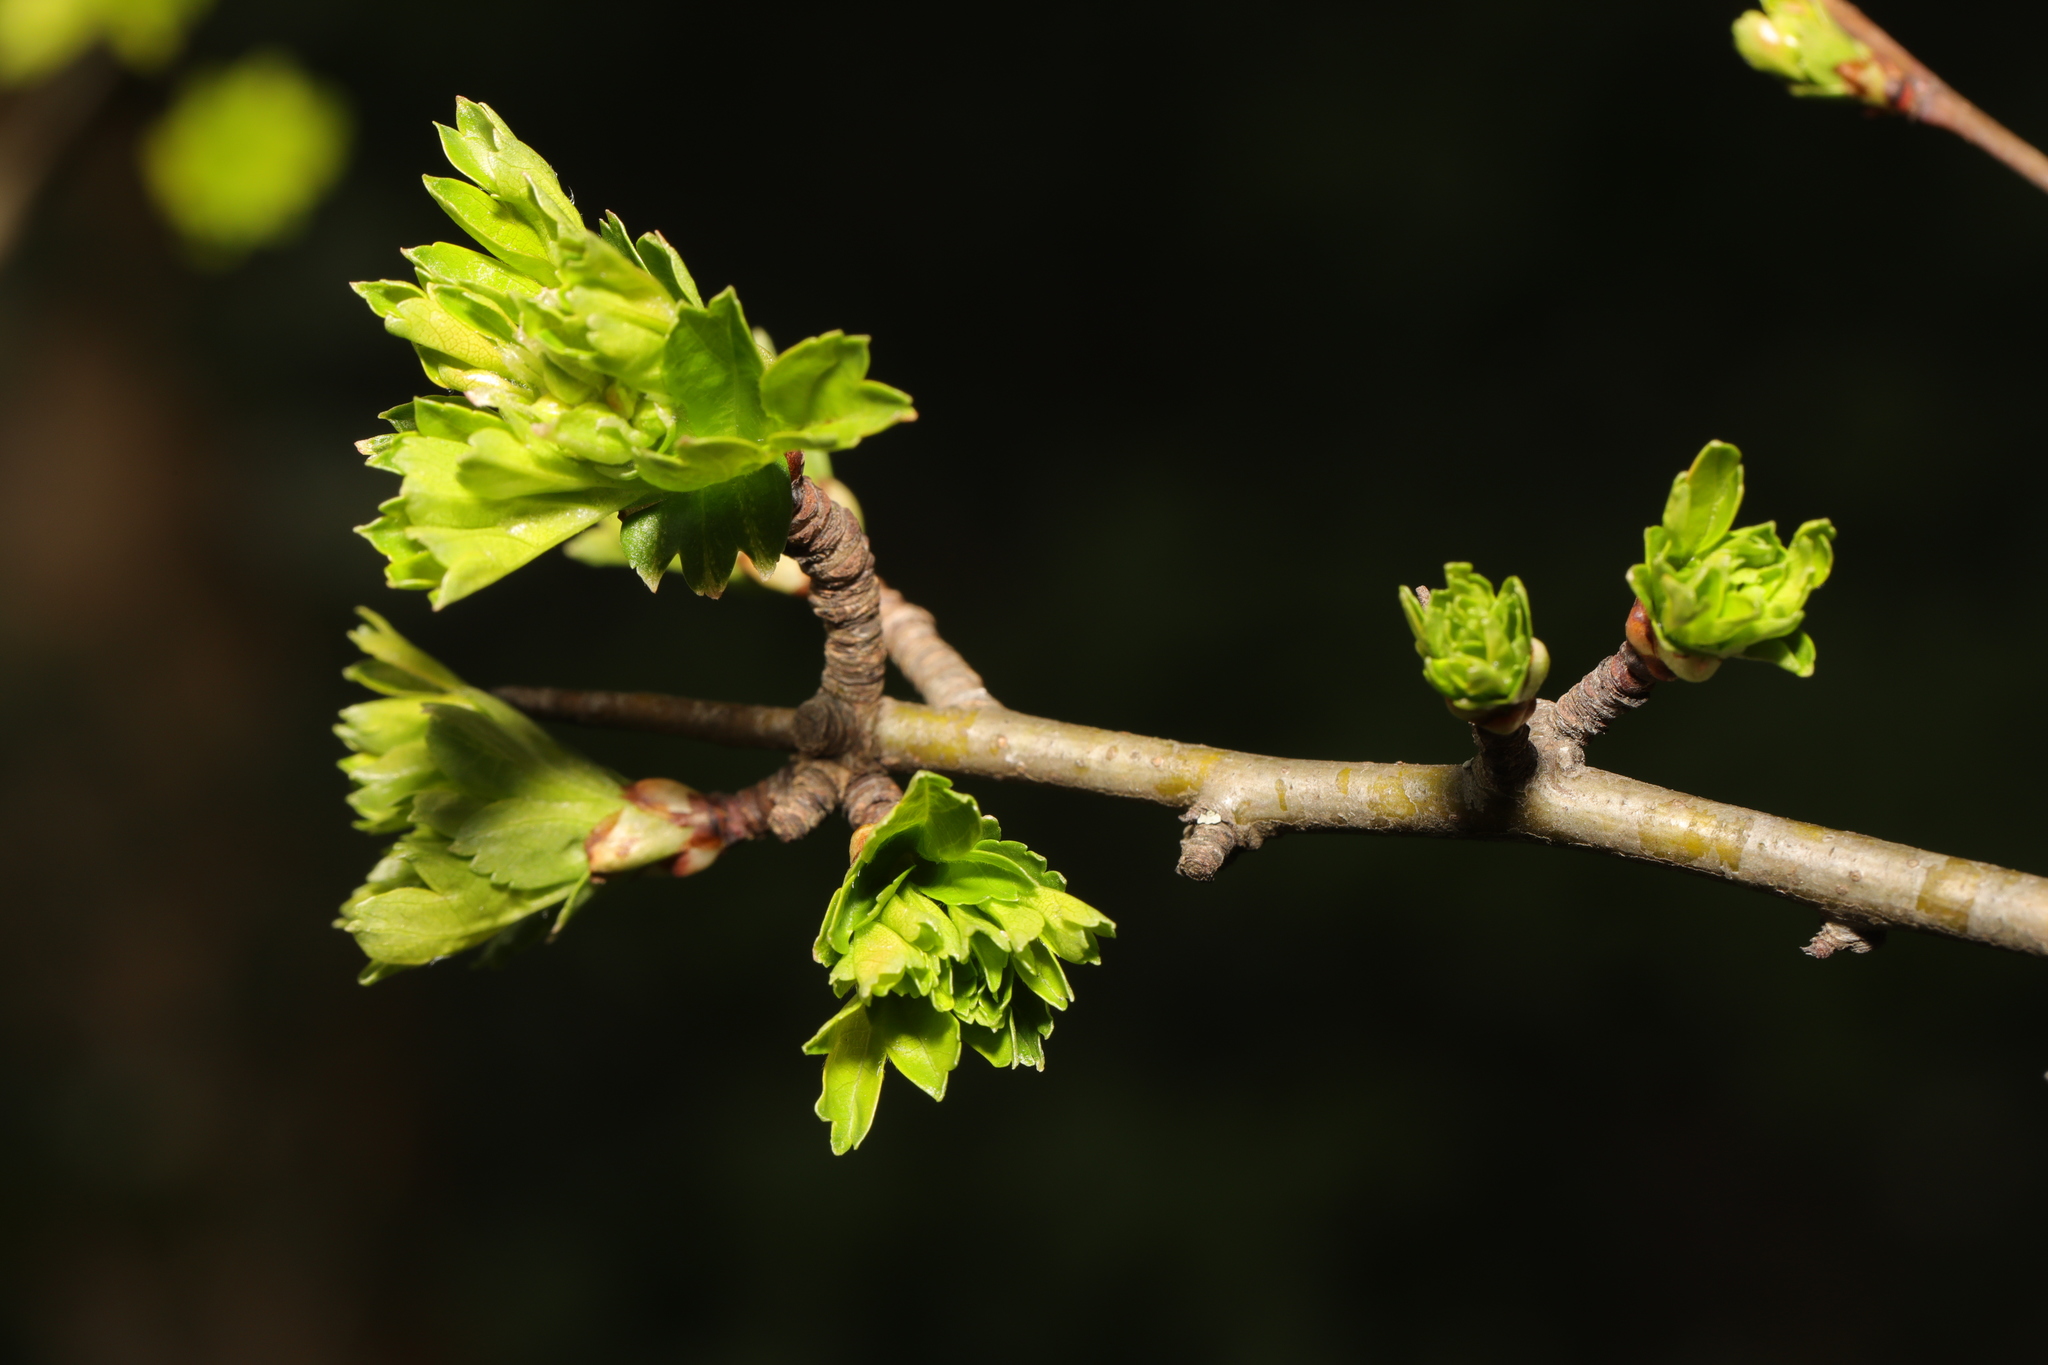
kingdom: Plantae
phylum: Tracheophyta
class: Magnoliopsida
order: Rosales
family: Rosaceae
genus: Crataegus
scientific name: Crataegus monogyna
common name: Hawthorn
